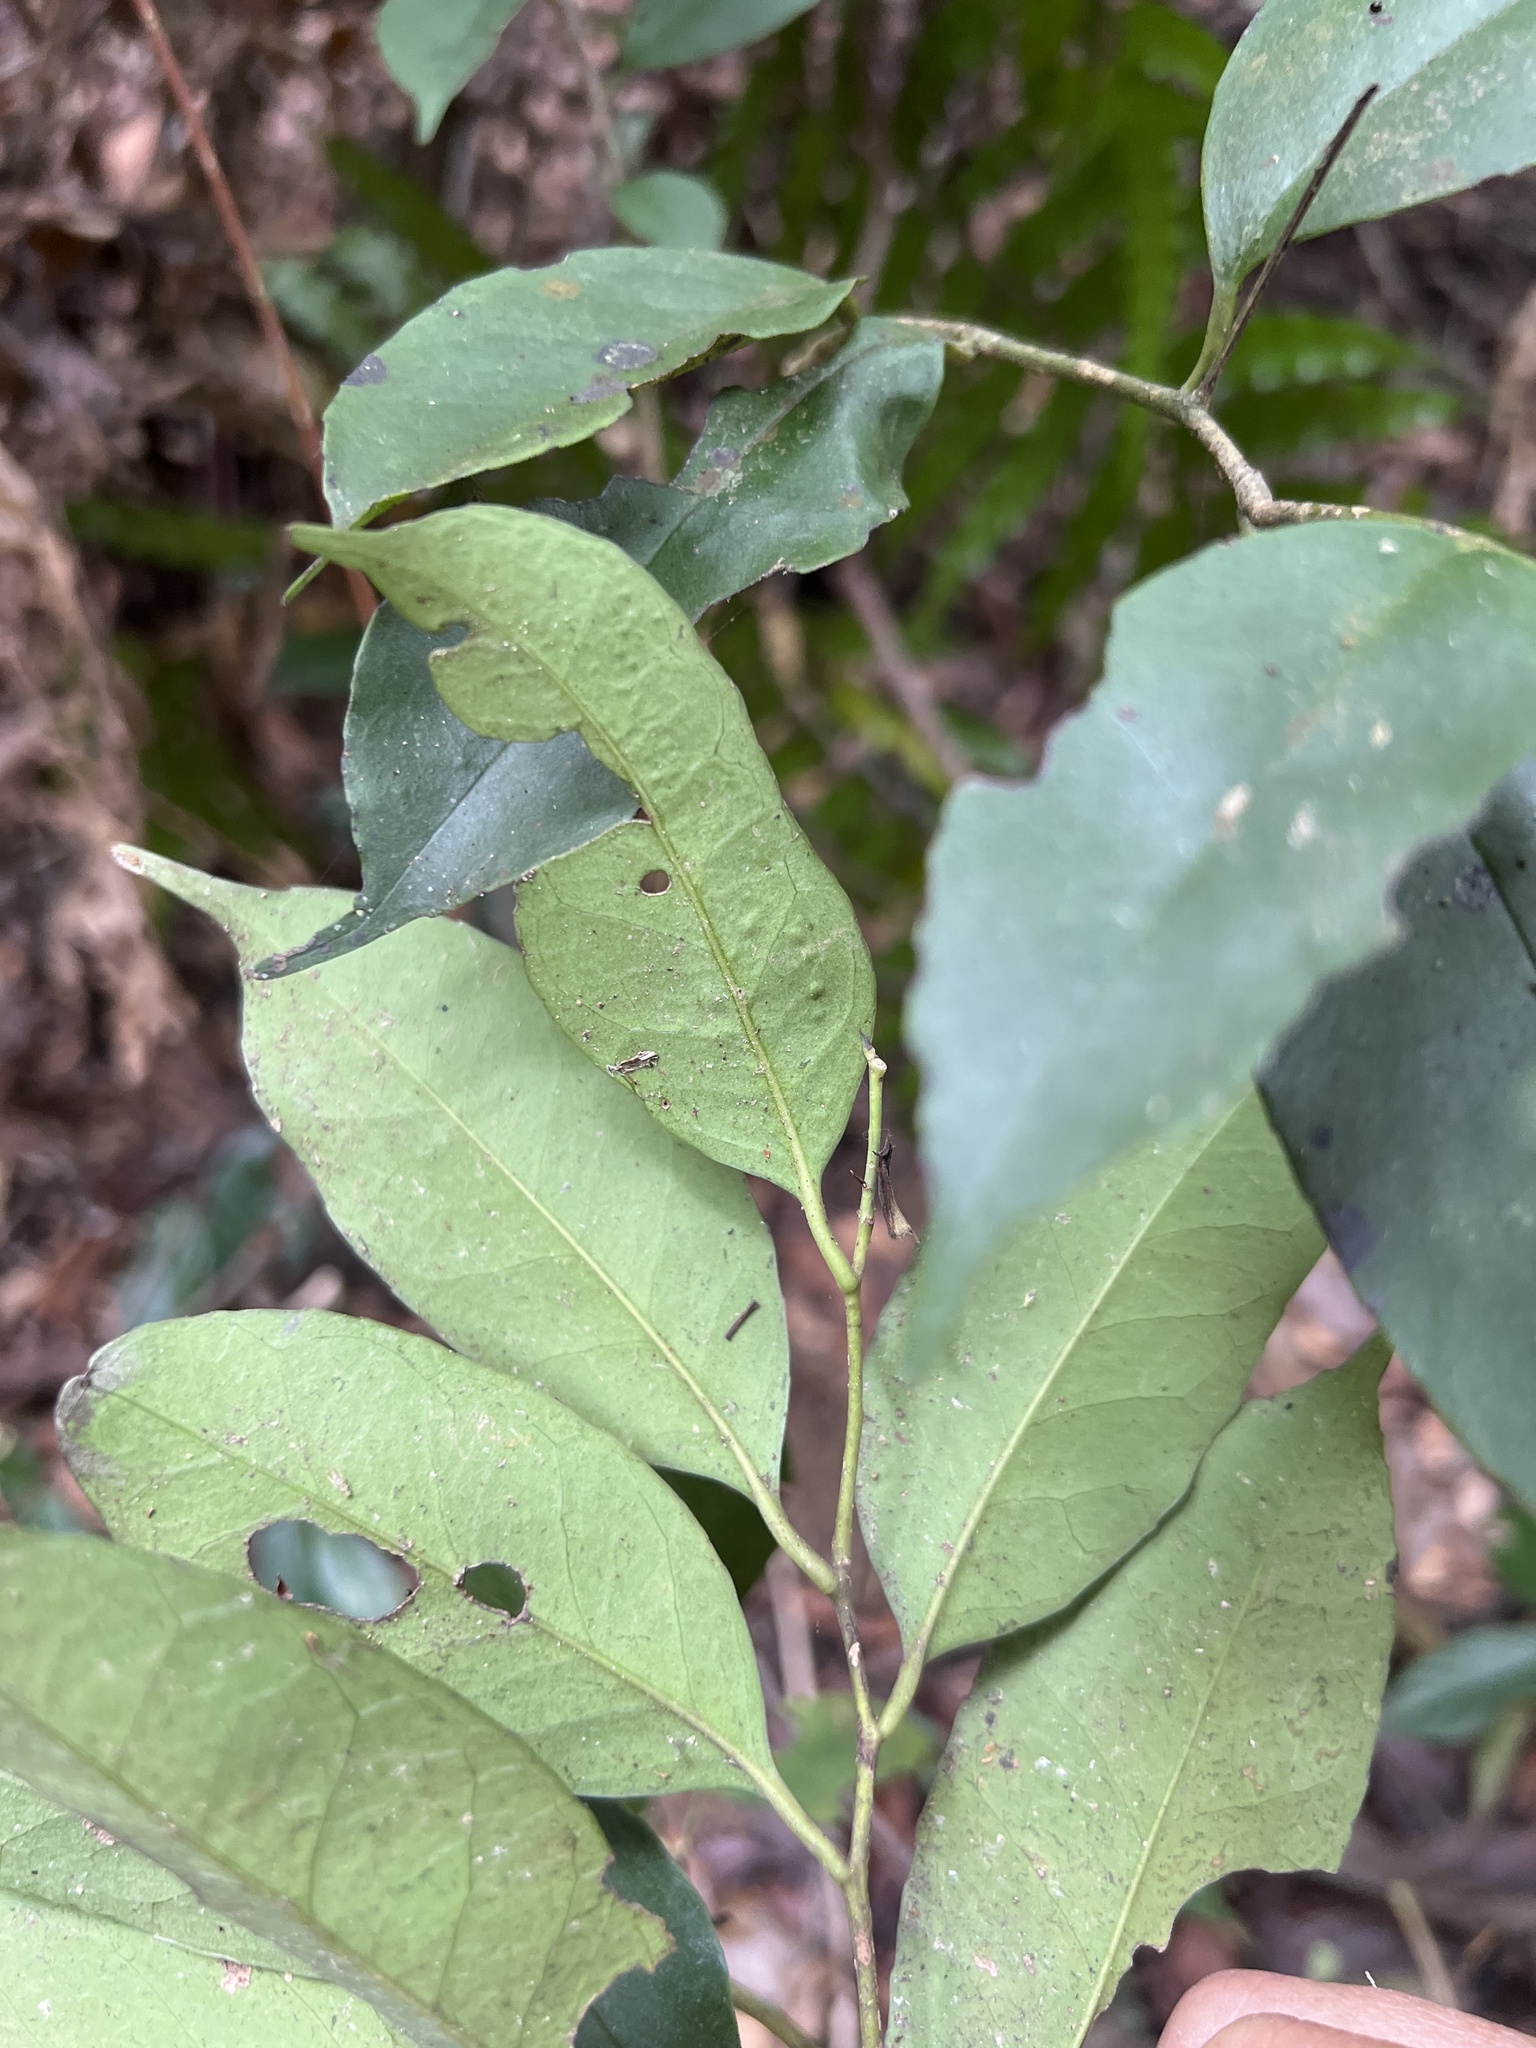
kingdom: Plantae
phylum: Tracheophyta
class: Magnoliopsida
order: Aquifoliales
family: Aquifoliaceae
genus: Ilex
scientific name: Ilex ficoidea
